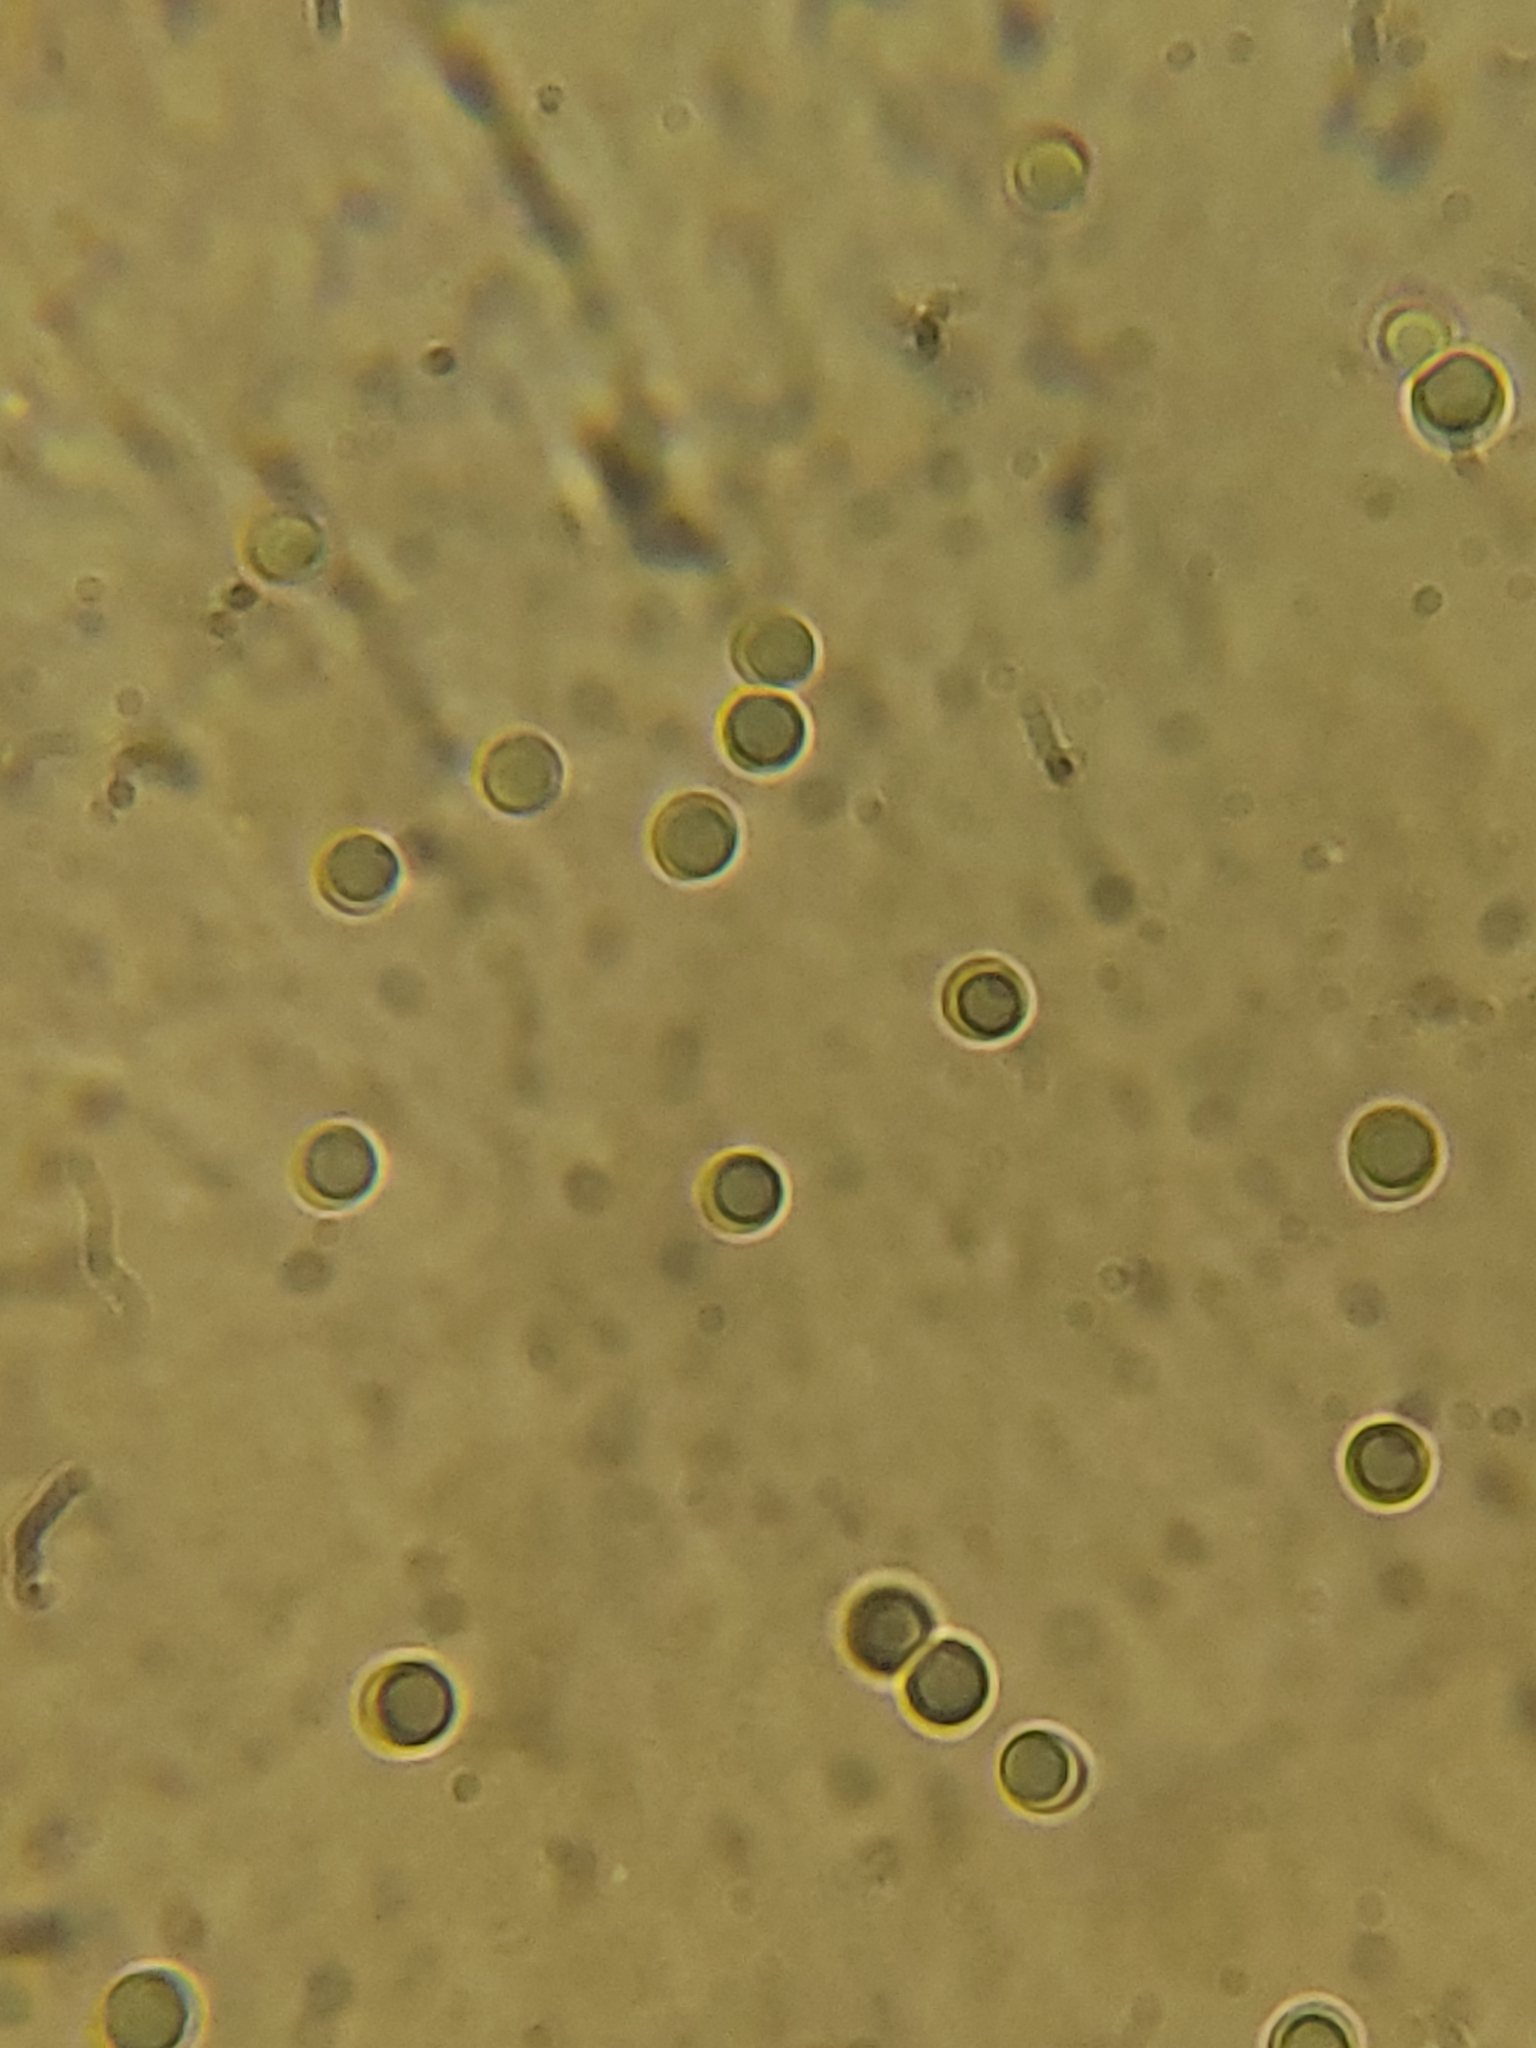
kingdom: Fungi
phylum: Basidiomycota
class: Agaricomycetes
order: Polyporales
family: Meruliaceae
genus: Physisporinus
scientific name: Physisporinus vitreus
